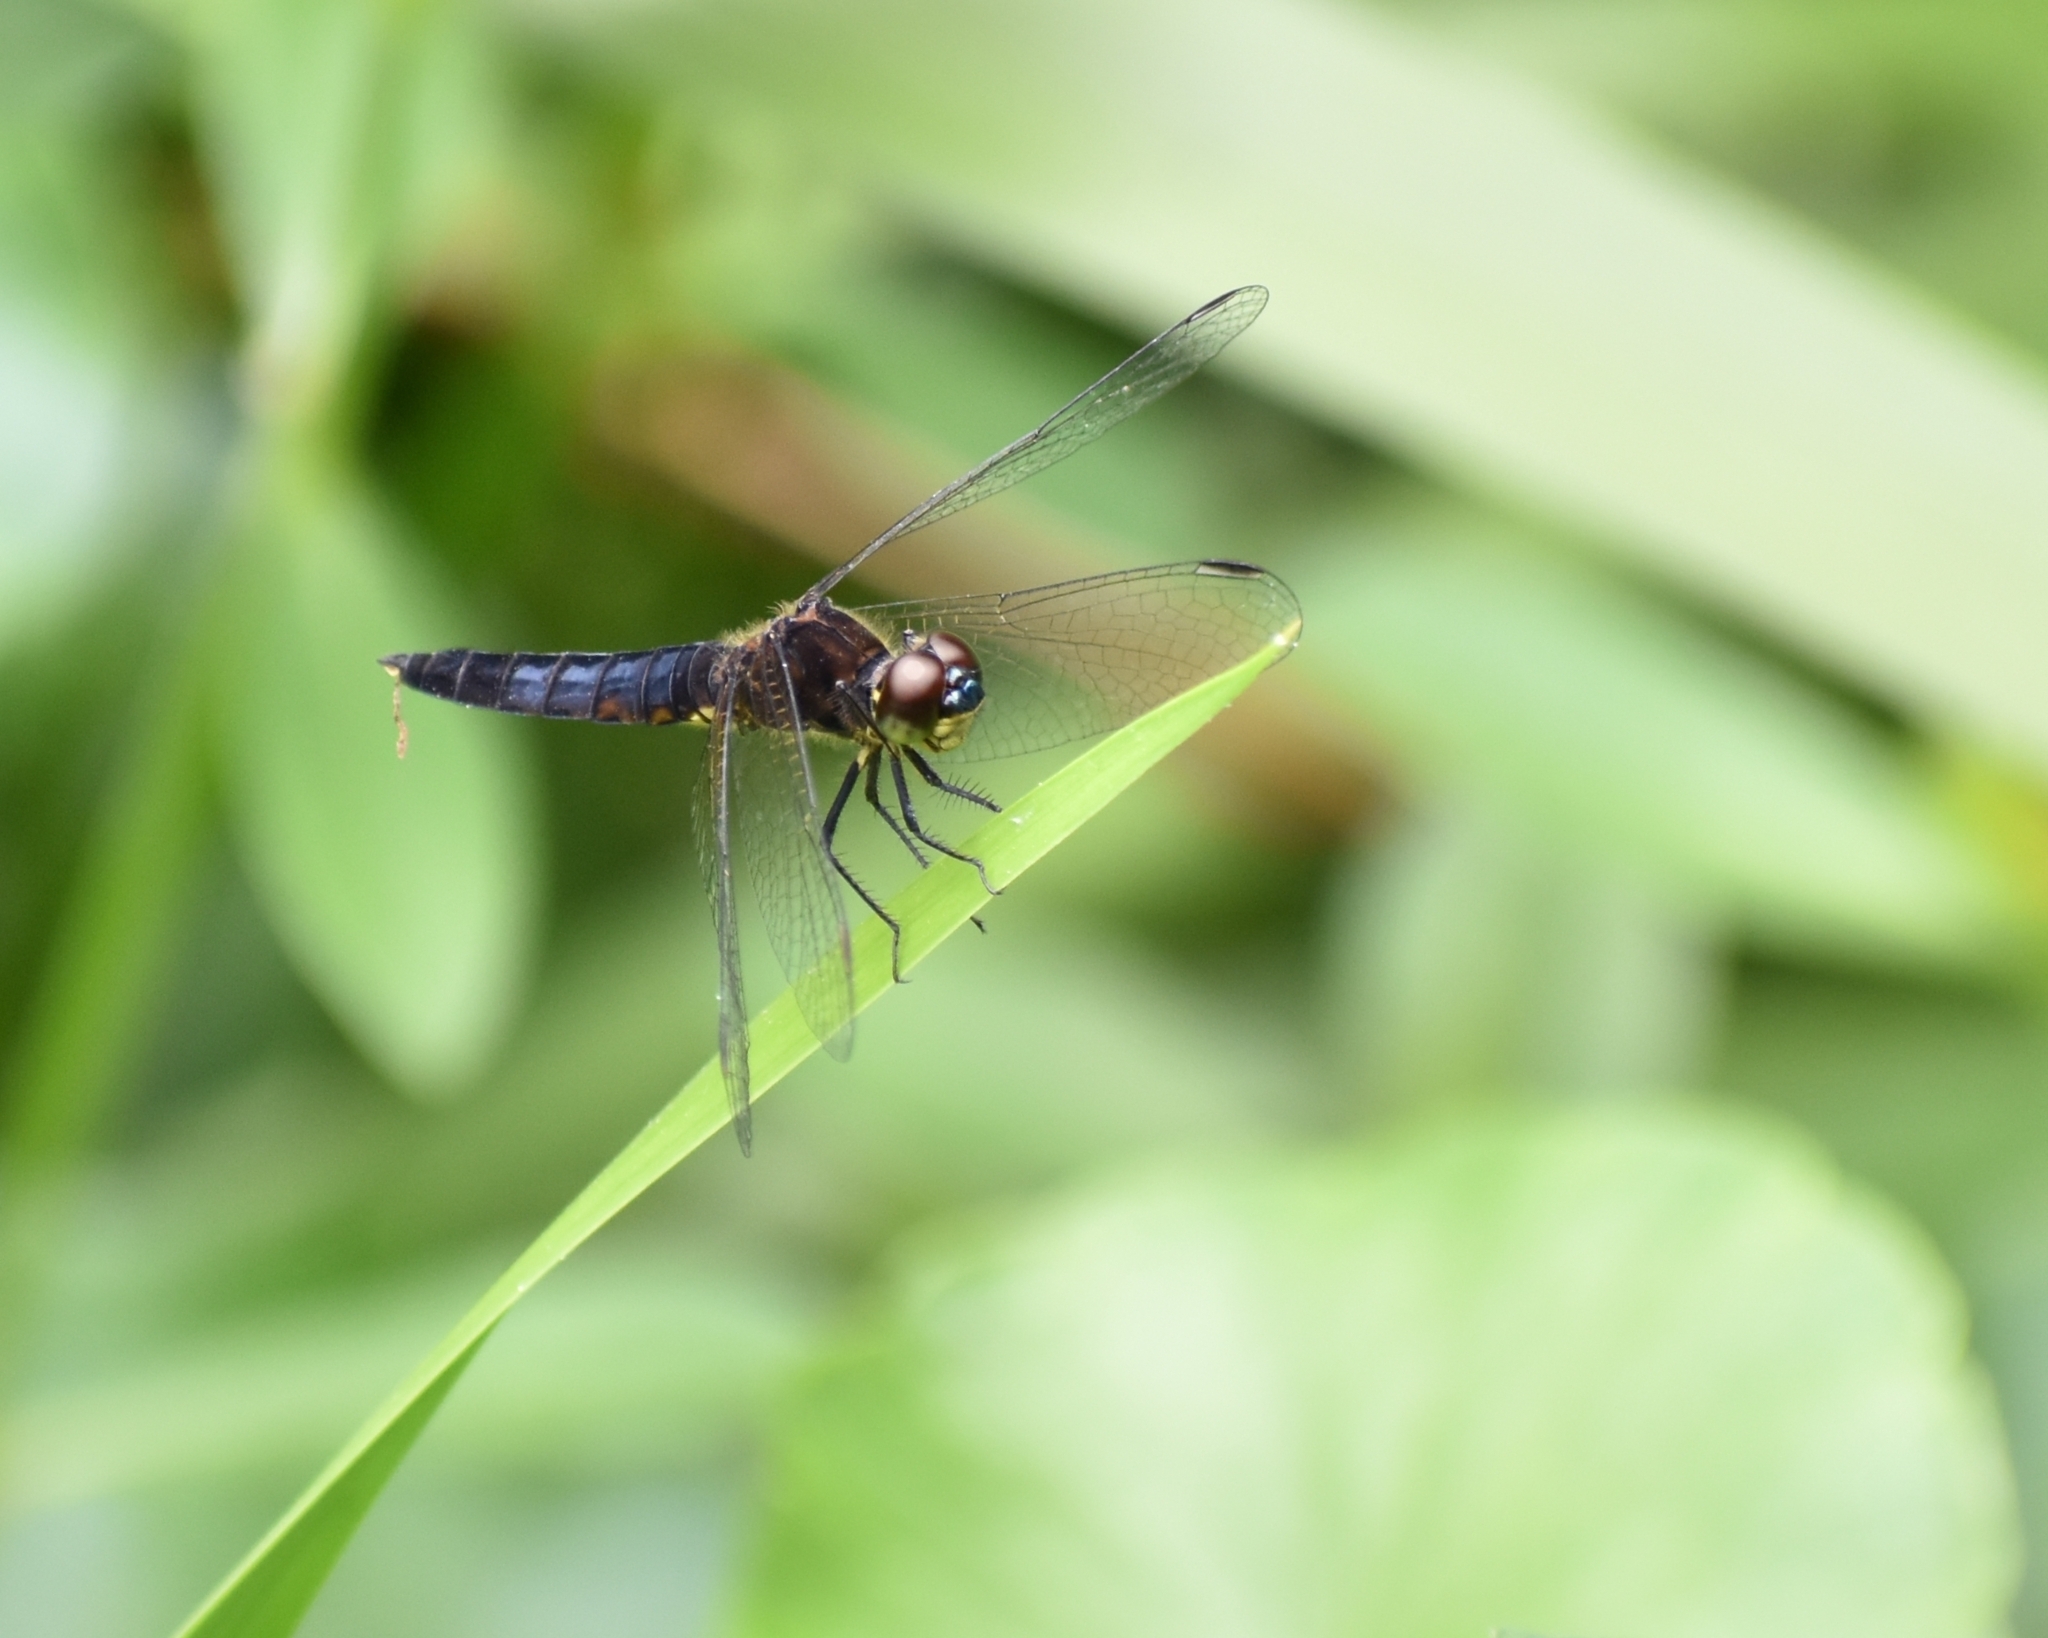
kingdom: Animalia
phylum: Arthropoda
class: Insecta
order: Odonata
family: Libellulidae
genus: Lyriothemis
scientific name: Lyriothemis pachygastra
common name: Wide-bellied skimmer
